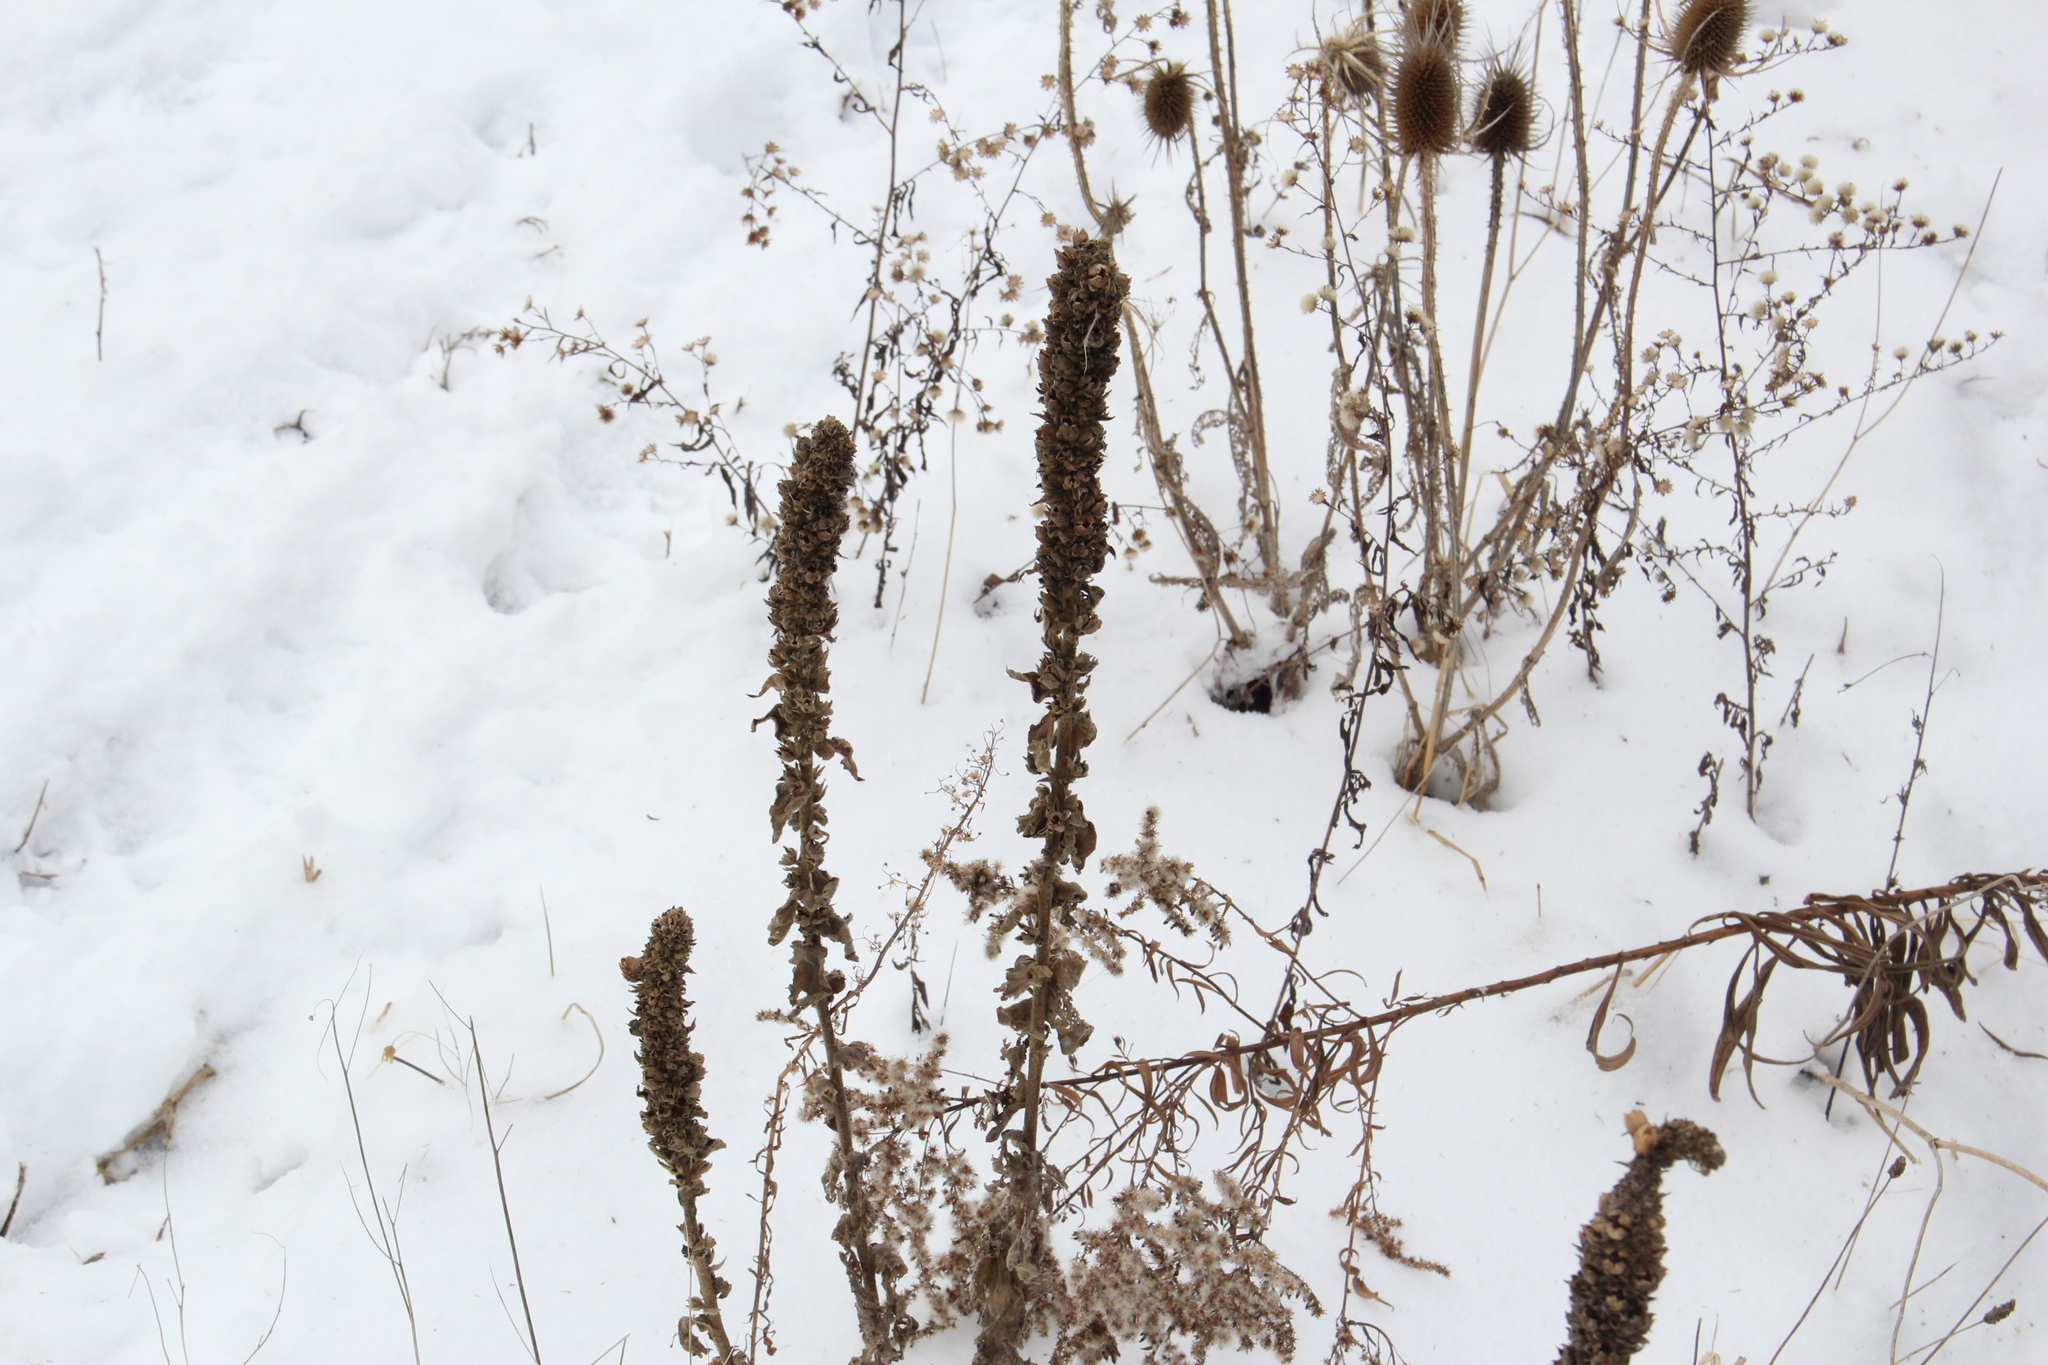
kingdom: Plantae
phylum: Tracheophyta
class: Magnoliopsida
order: Lamiales
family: Scrophulariaceae
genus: Verbascum
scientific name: Verbascum thapsus
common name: Common mullein
